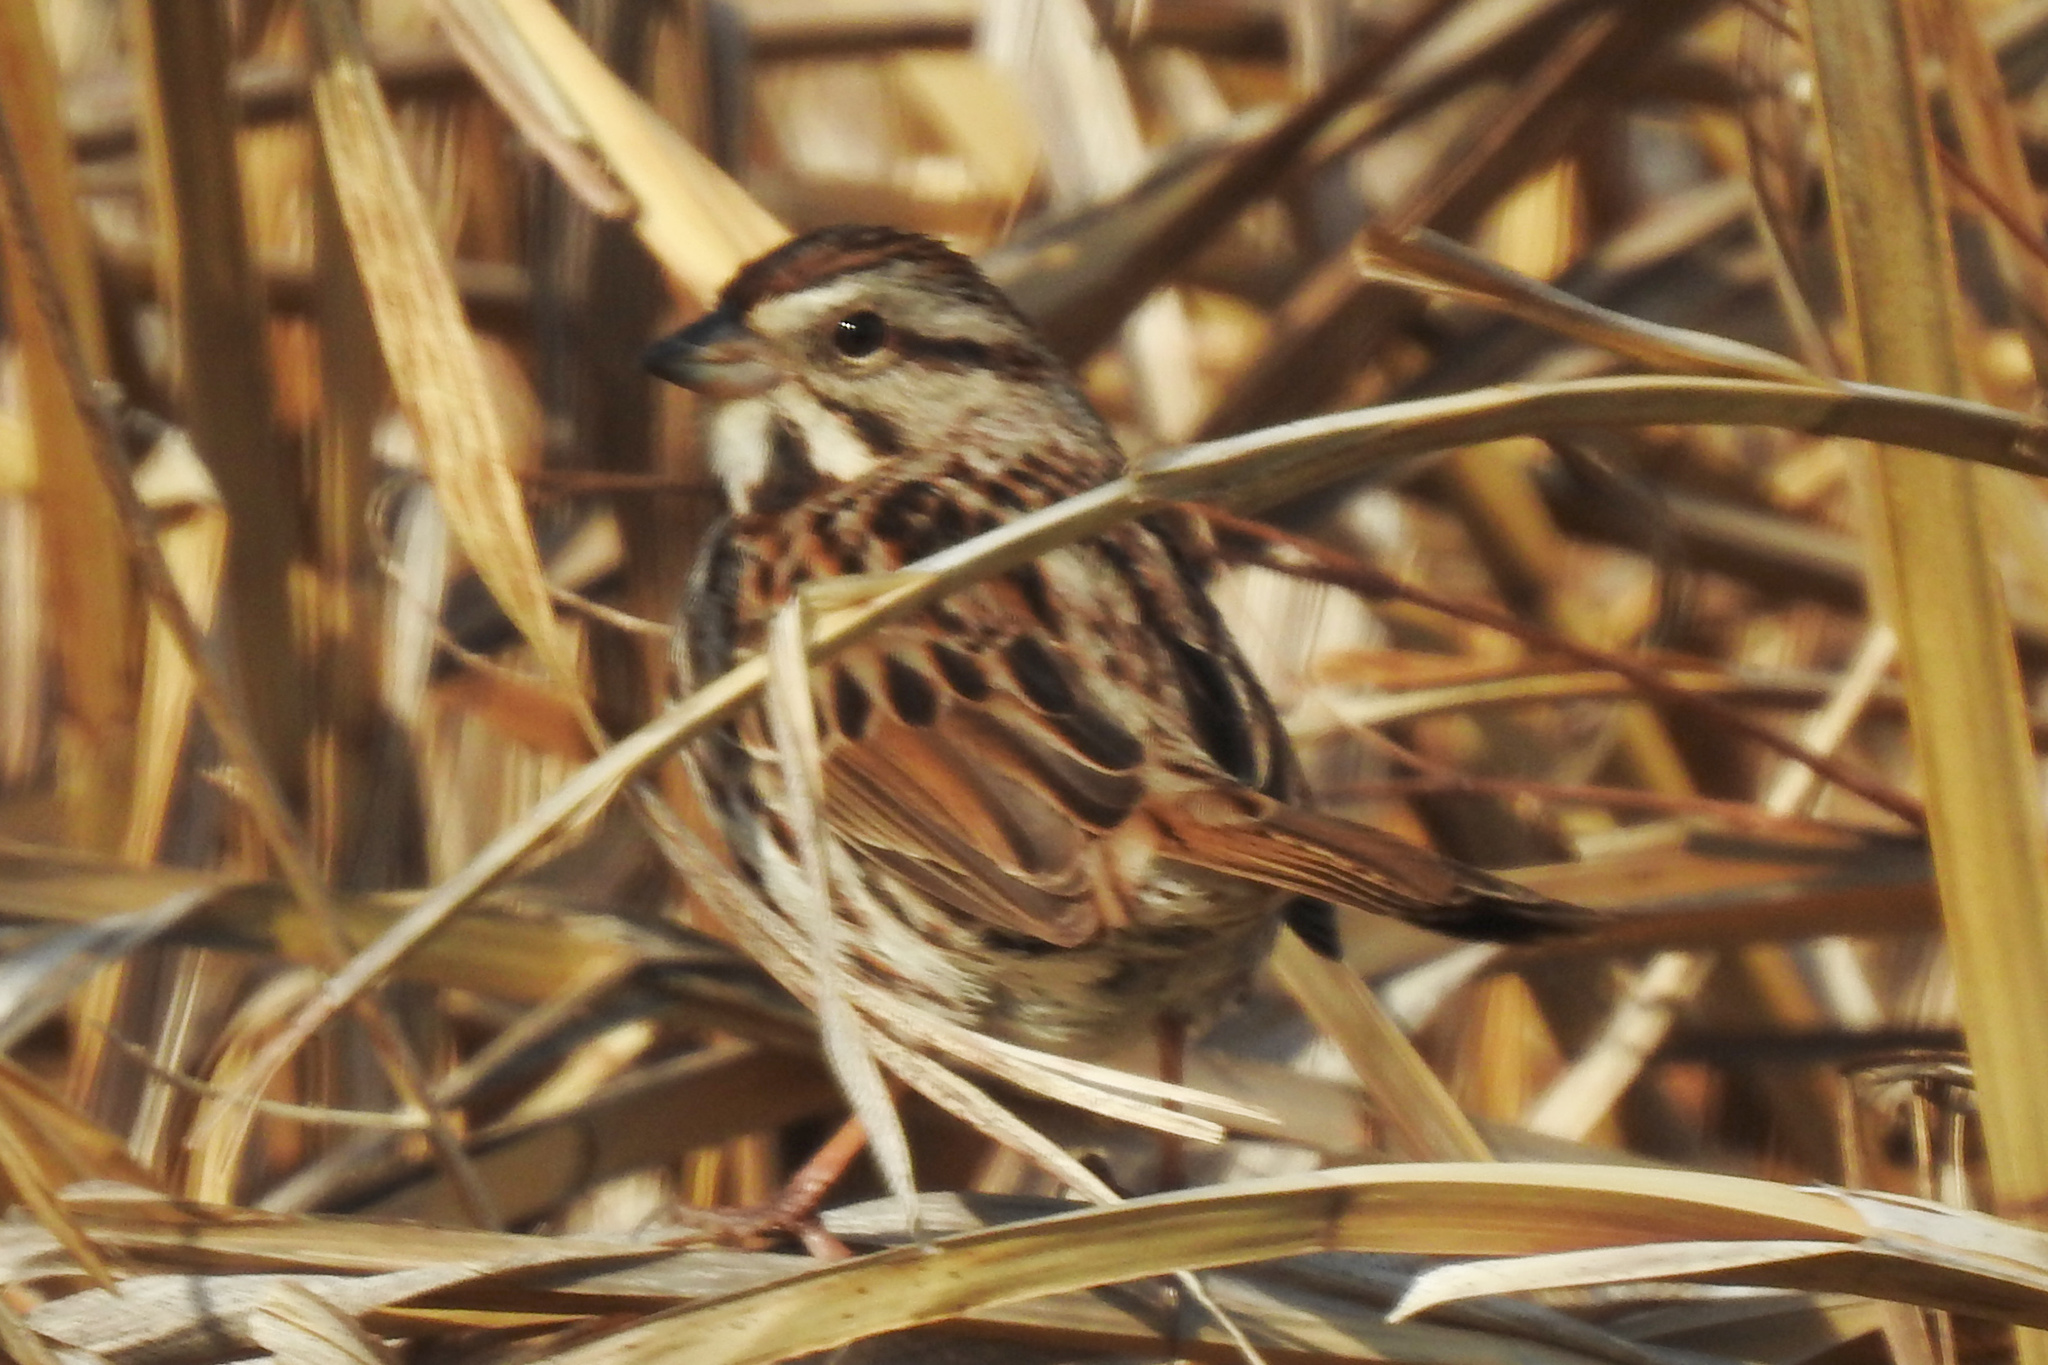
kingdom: Animalia
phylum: Chordata
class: Aves
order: Passeriformes
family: Passerellidae
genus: Melospiza
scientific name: Melospiza melodia
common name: Song sparrow
